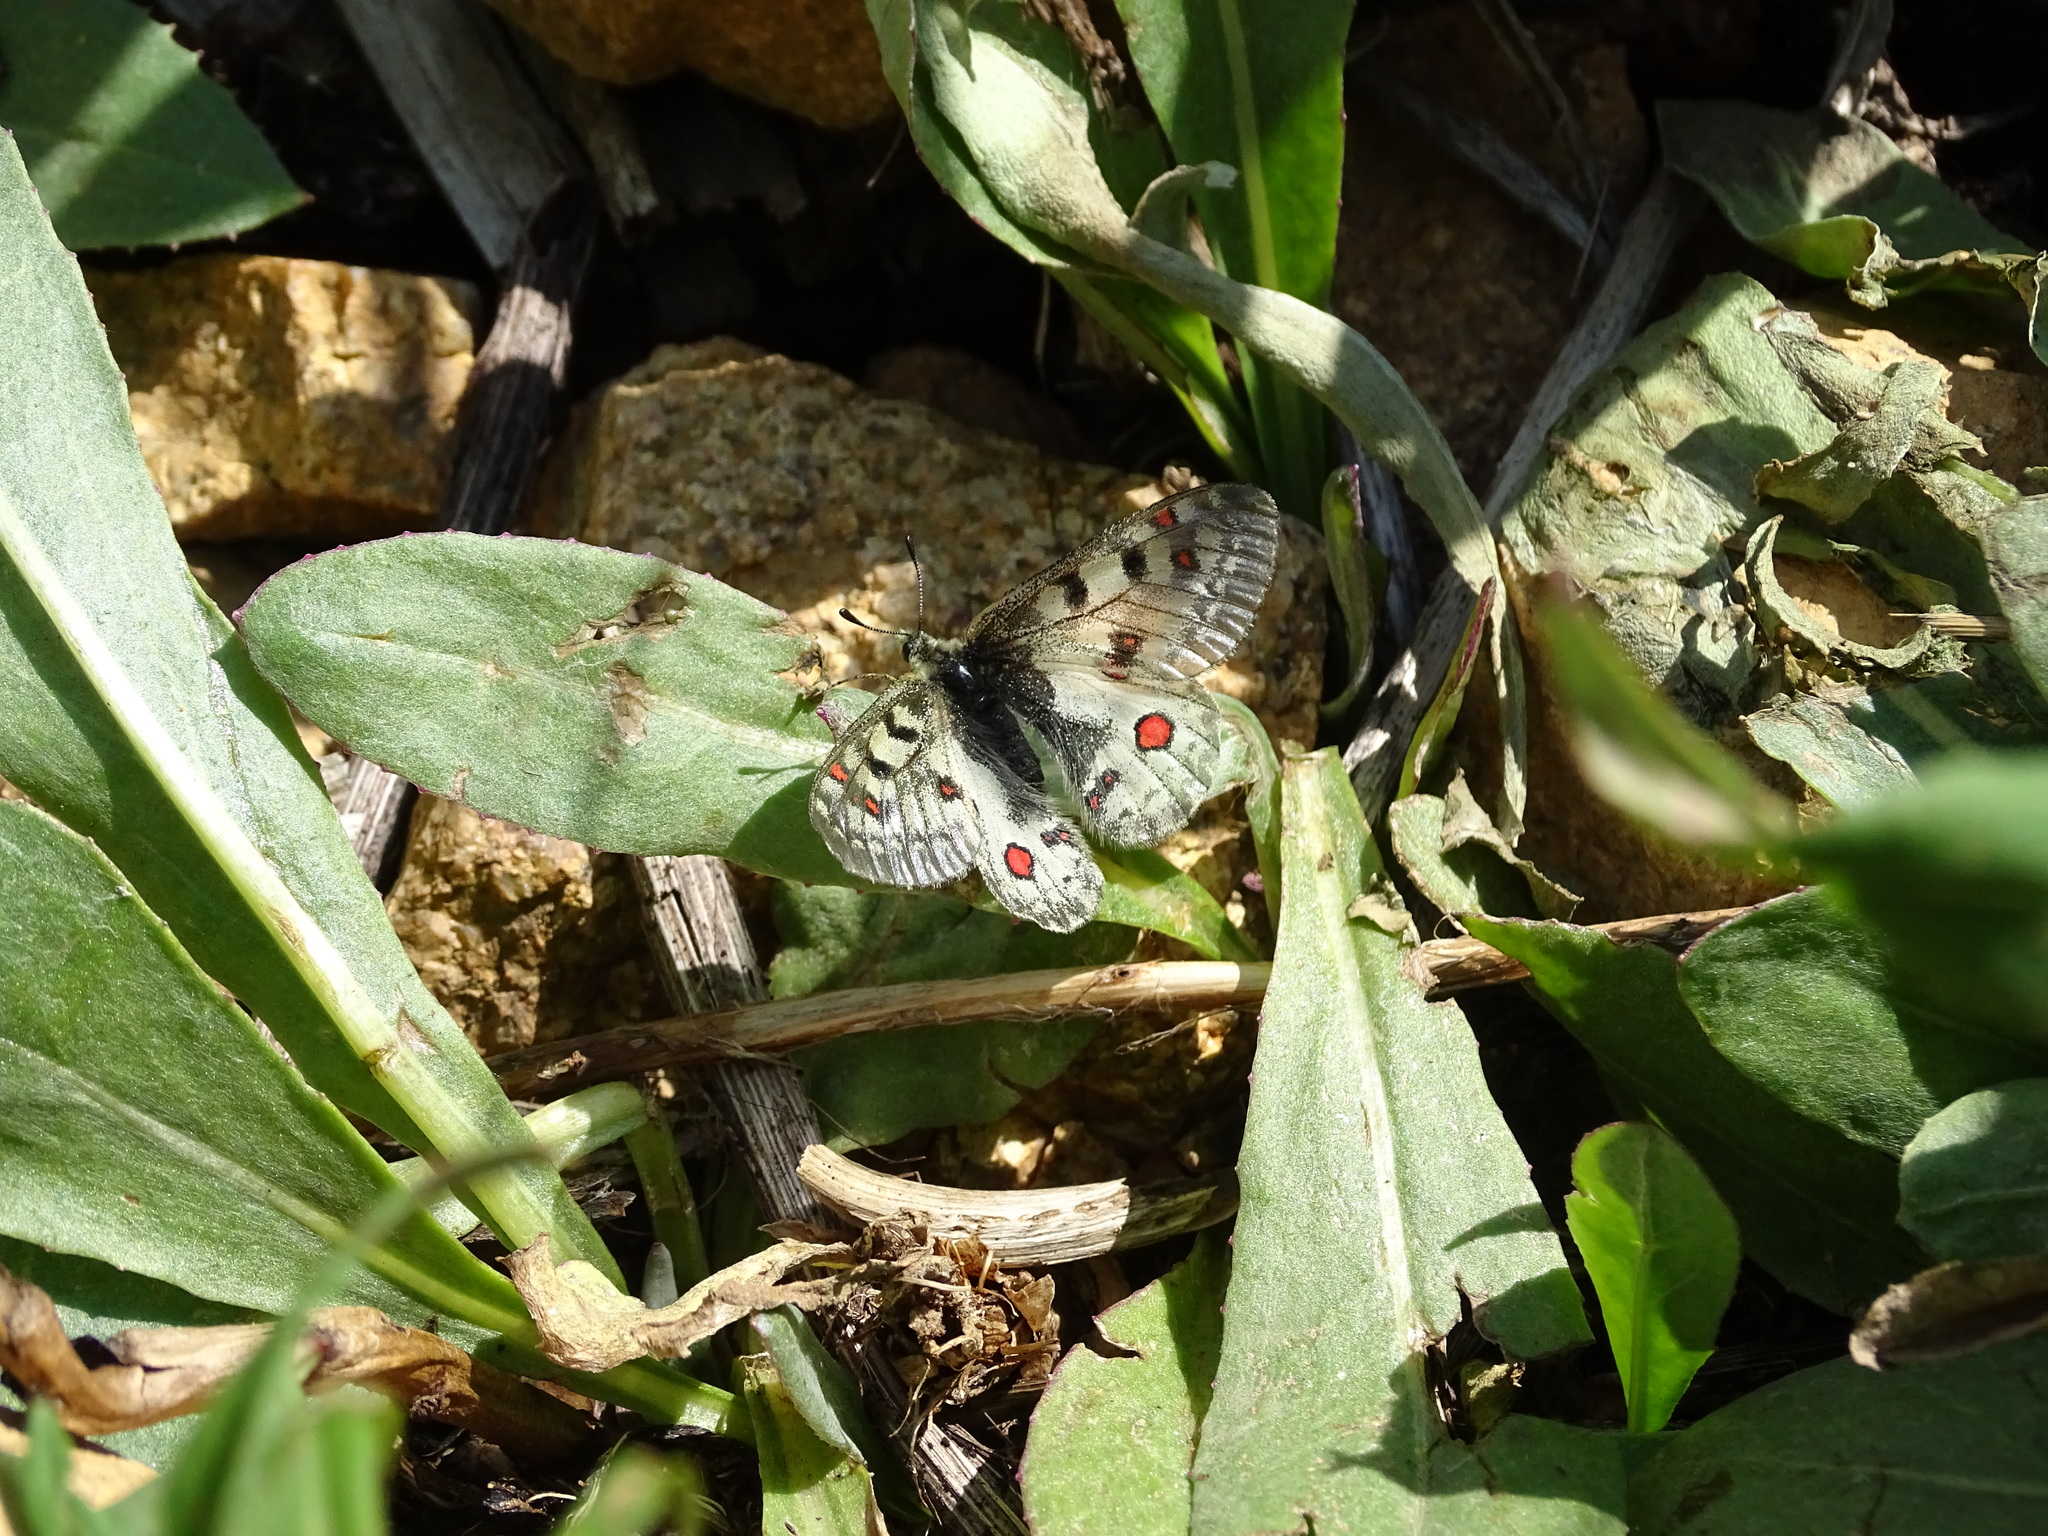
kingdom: Animalia
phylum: Arthropoda
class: Insecta
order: Lepidoptera
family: Papilionidae
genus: Parnassius
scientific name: Parnassius smintheus
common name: Mountain parnassian
